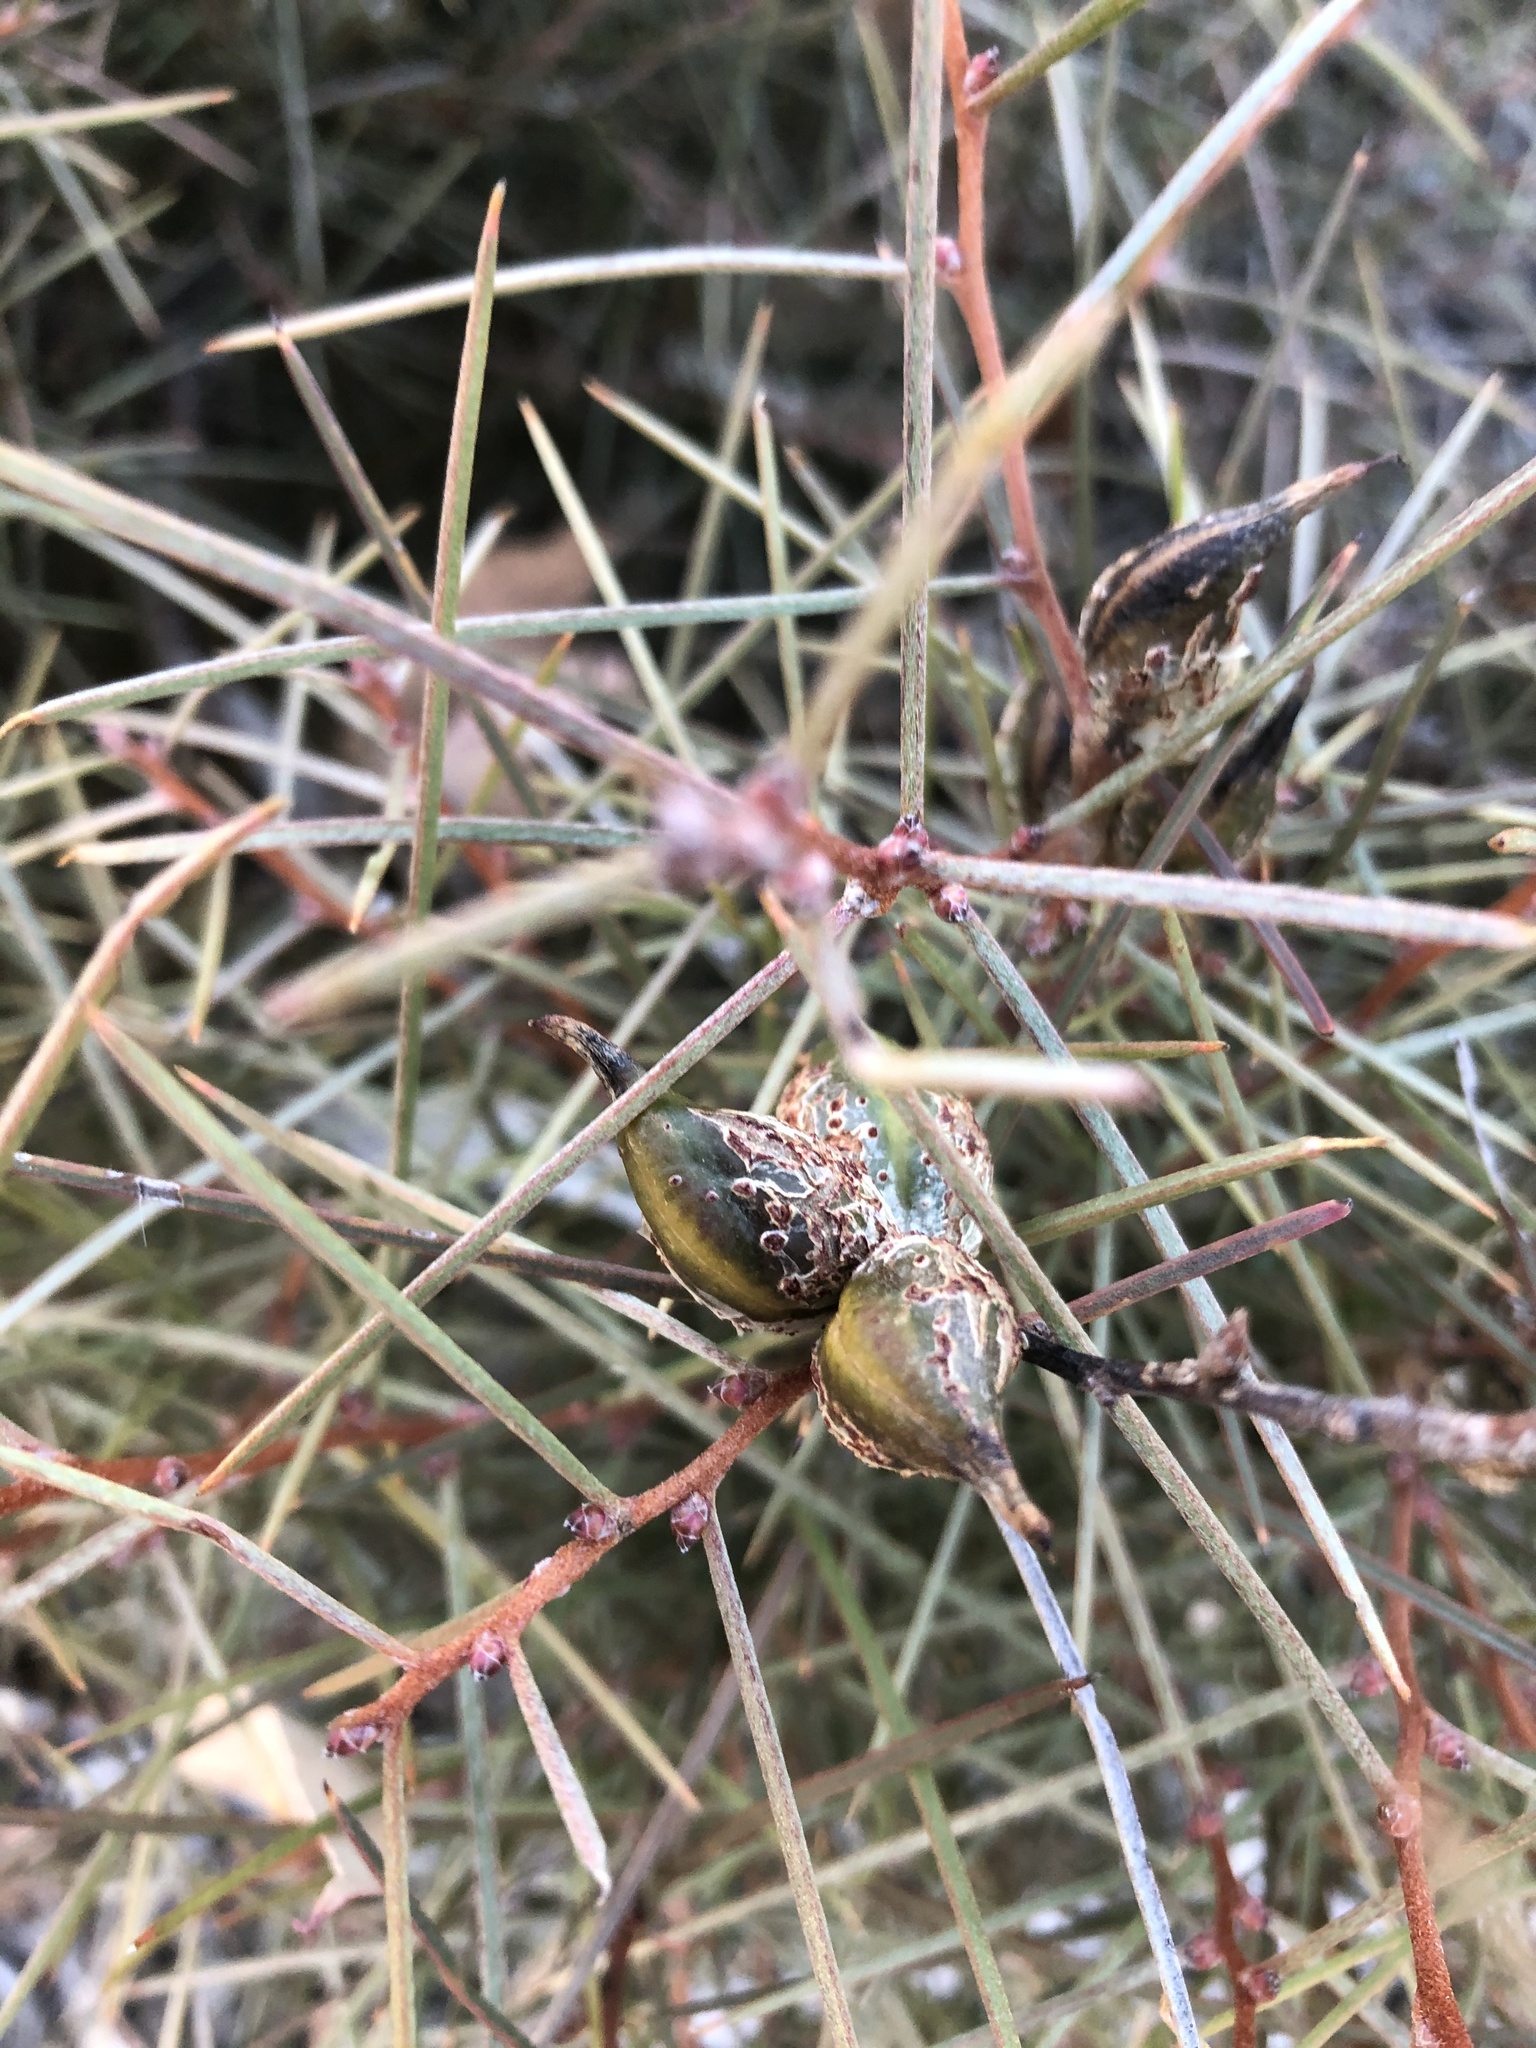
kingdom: Plantae
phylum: Tracheophyta
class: Magnoliopsida
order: Proteales
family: Proteaceae
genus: Hakea
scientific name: Hakea carinata
